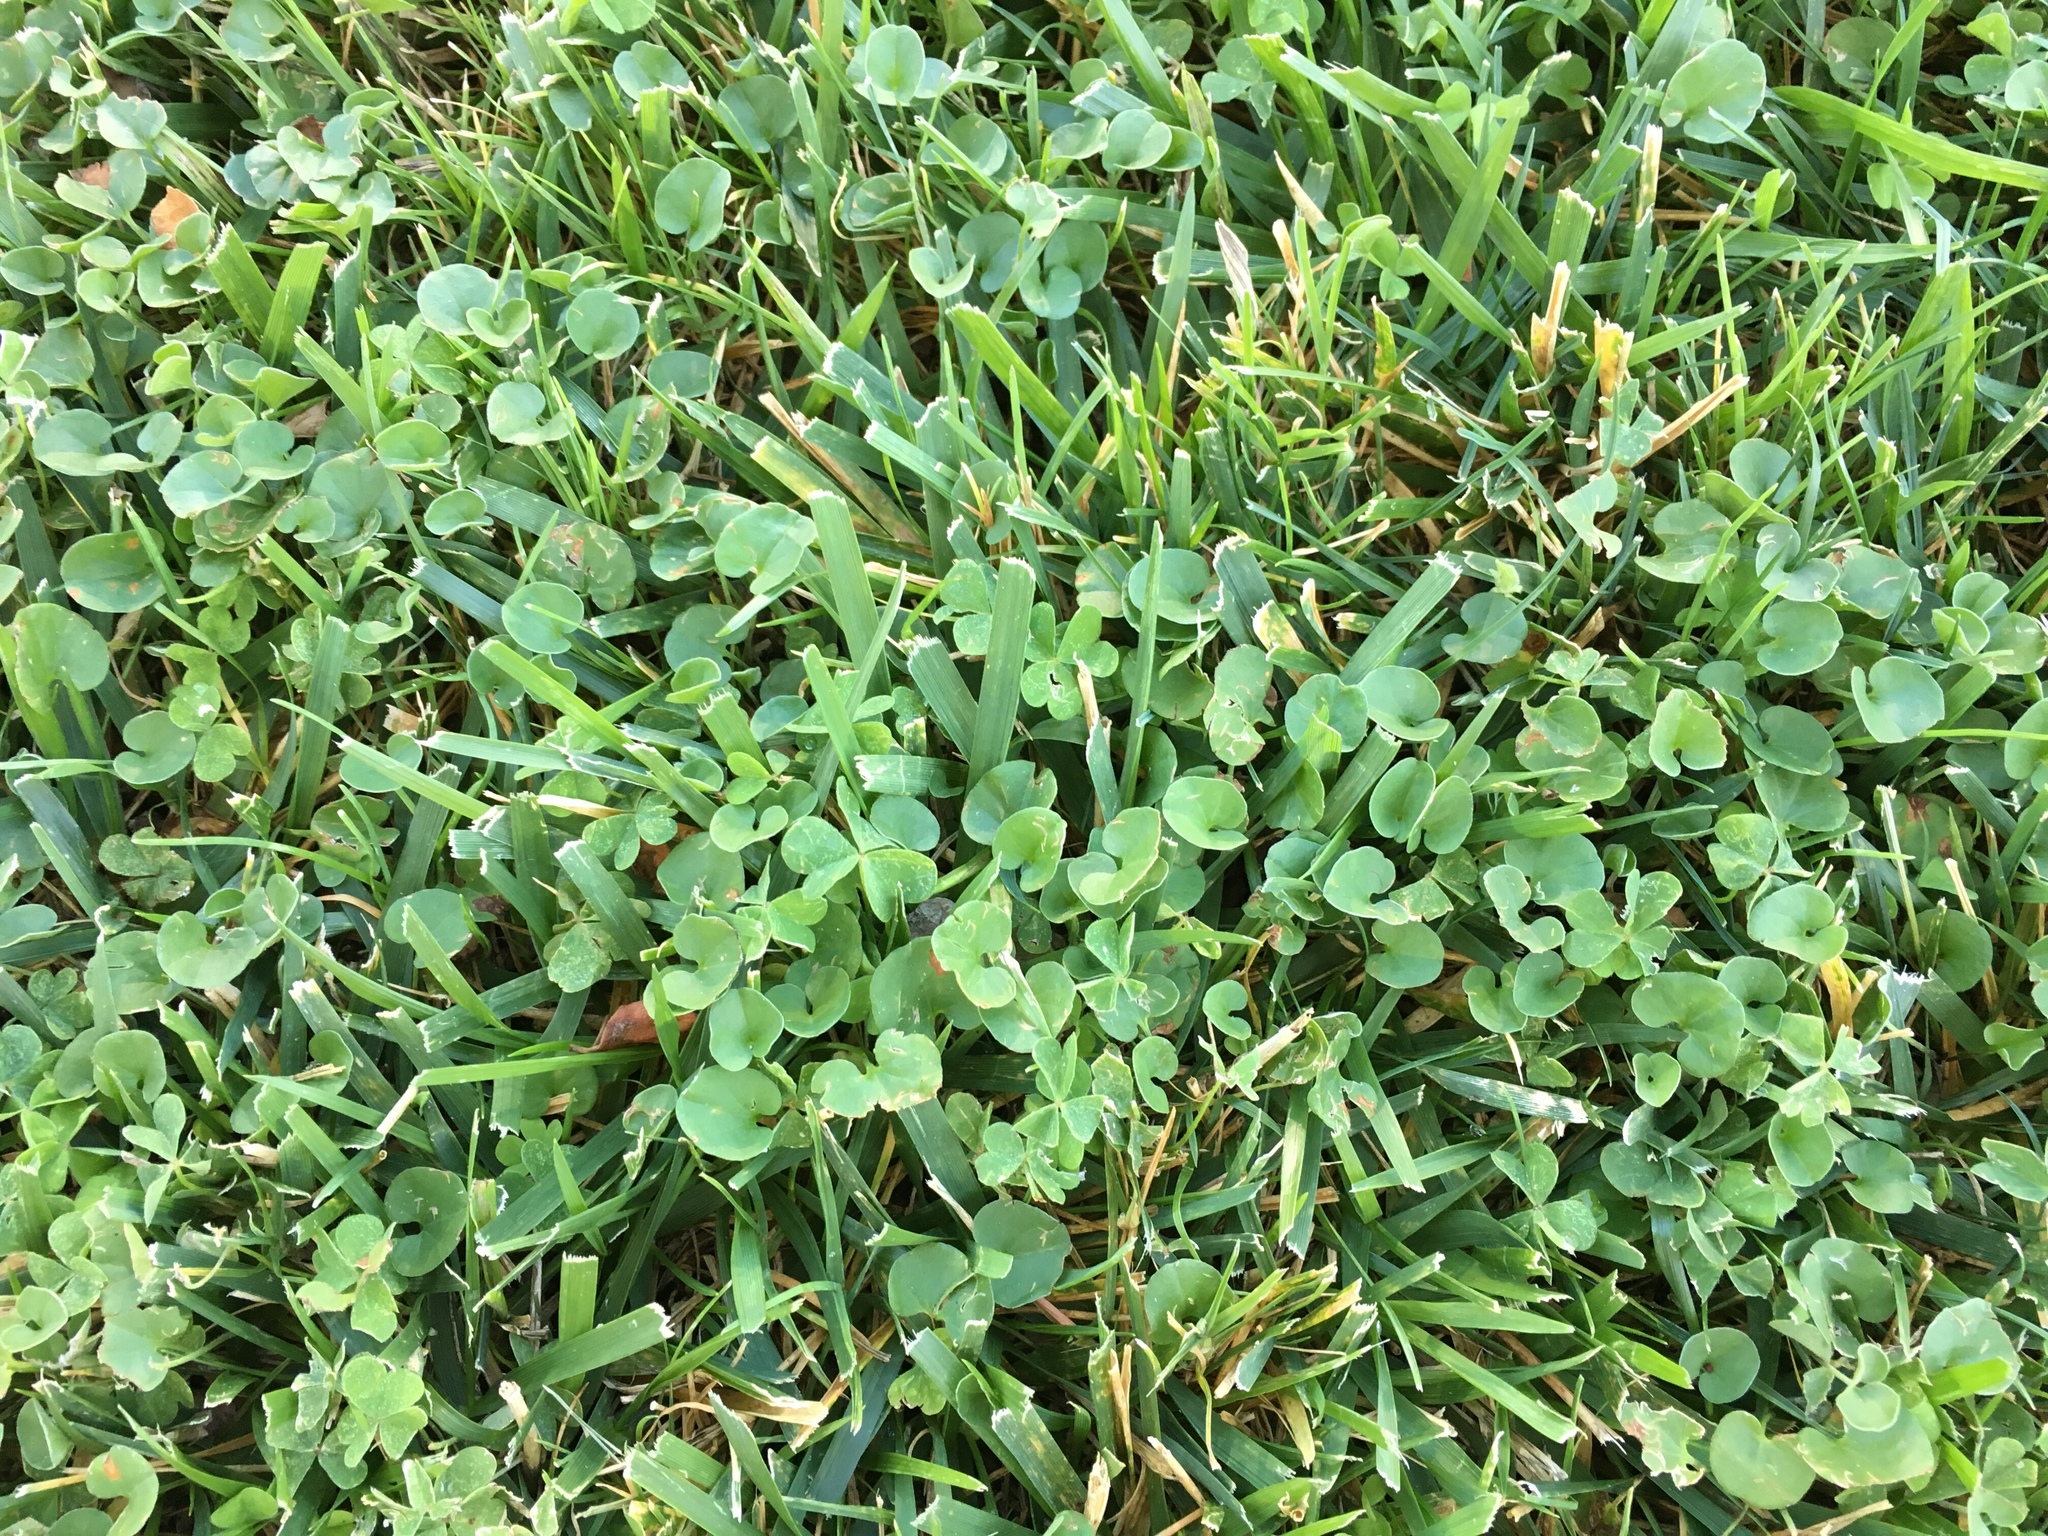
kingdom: Plantae
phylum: Tracheophyta
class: Magnoliopsida
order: Solanales
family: Convolvulaceae
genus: Dichondra
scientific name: Dichondra micrantha
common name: Kidneyweed
